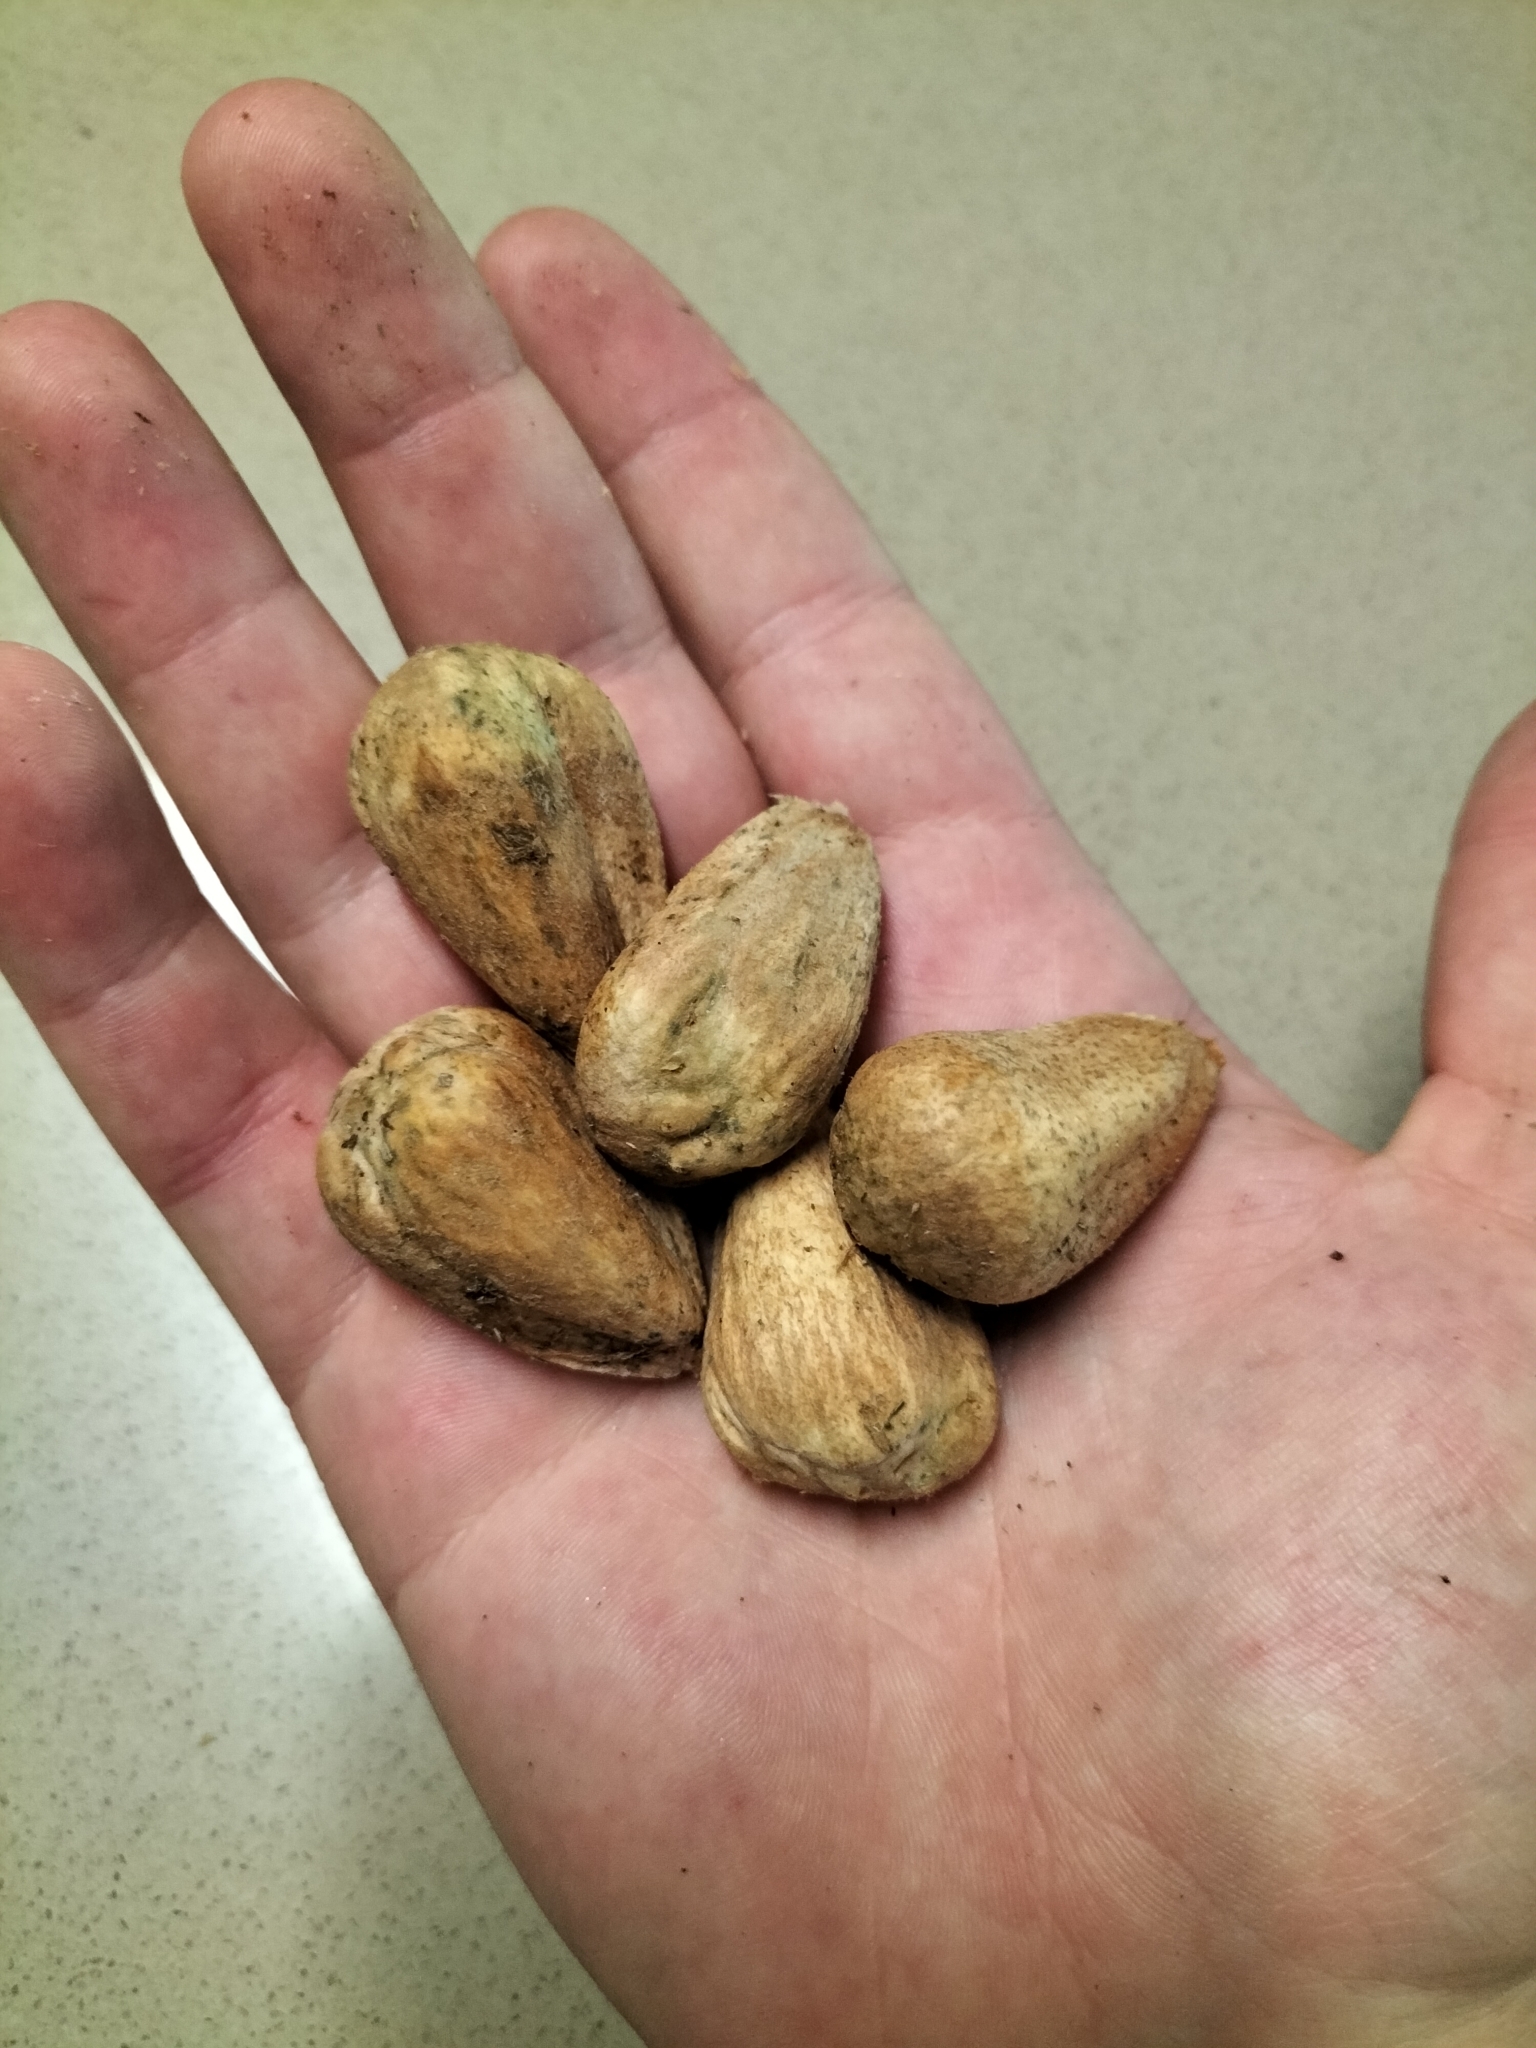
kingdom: Plantae
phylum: Tracheophyta
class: Pinopsida
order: Pinales
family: Araucariaceae
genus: Araucaria
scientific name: Araucaria bidwillii
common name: Moreton-bay-pine
